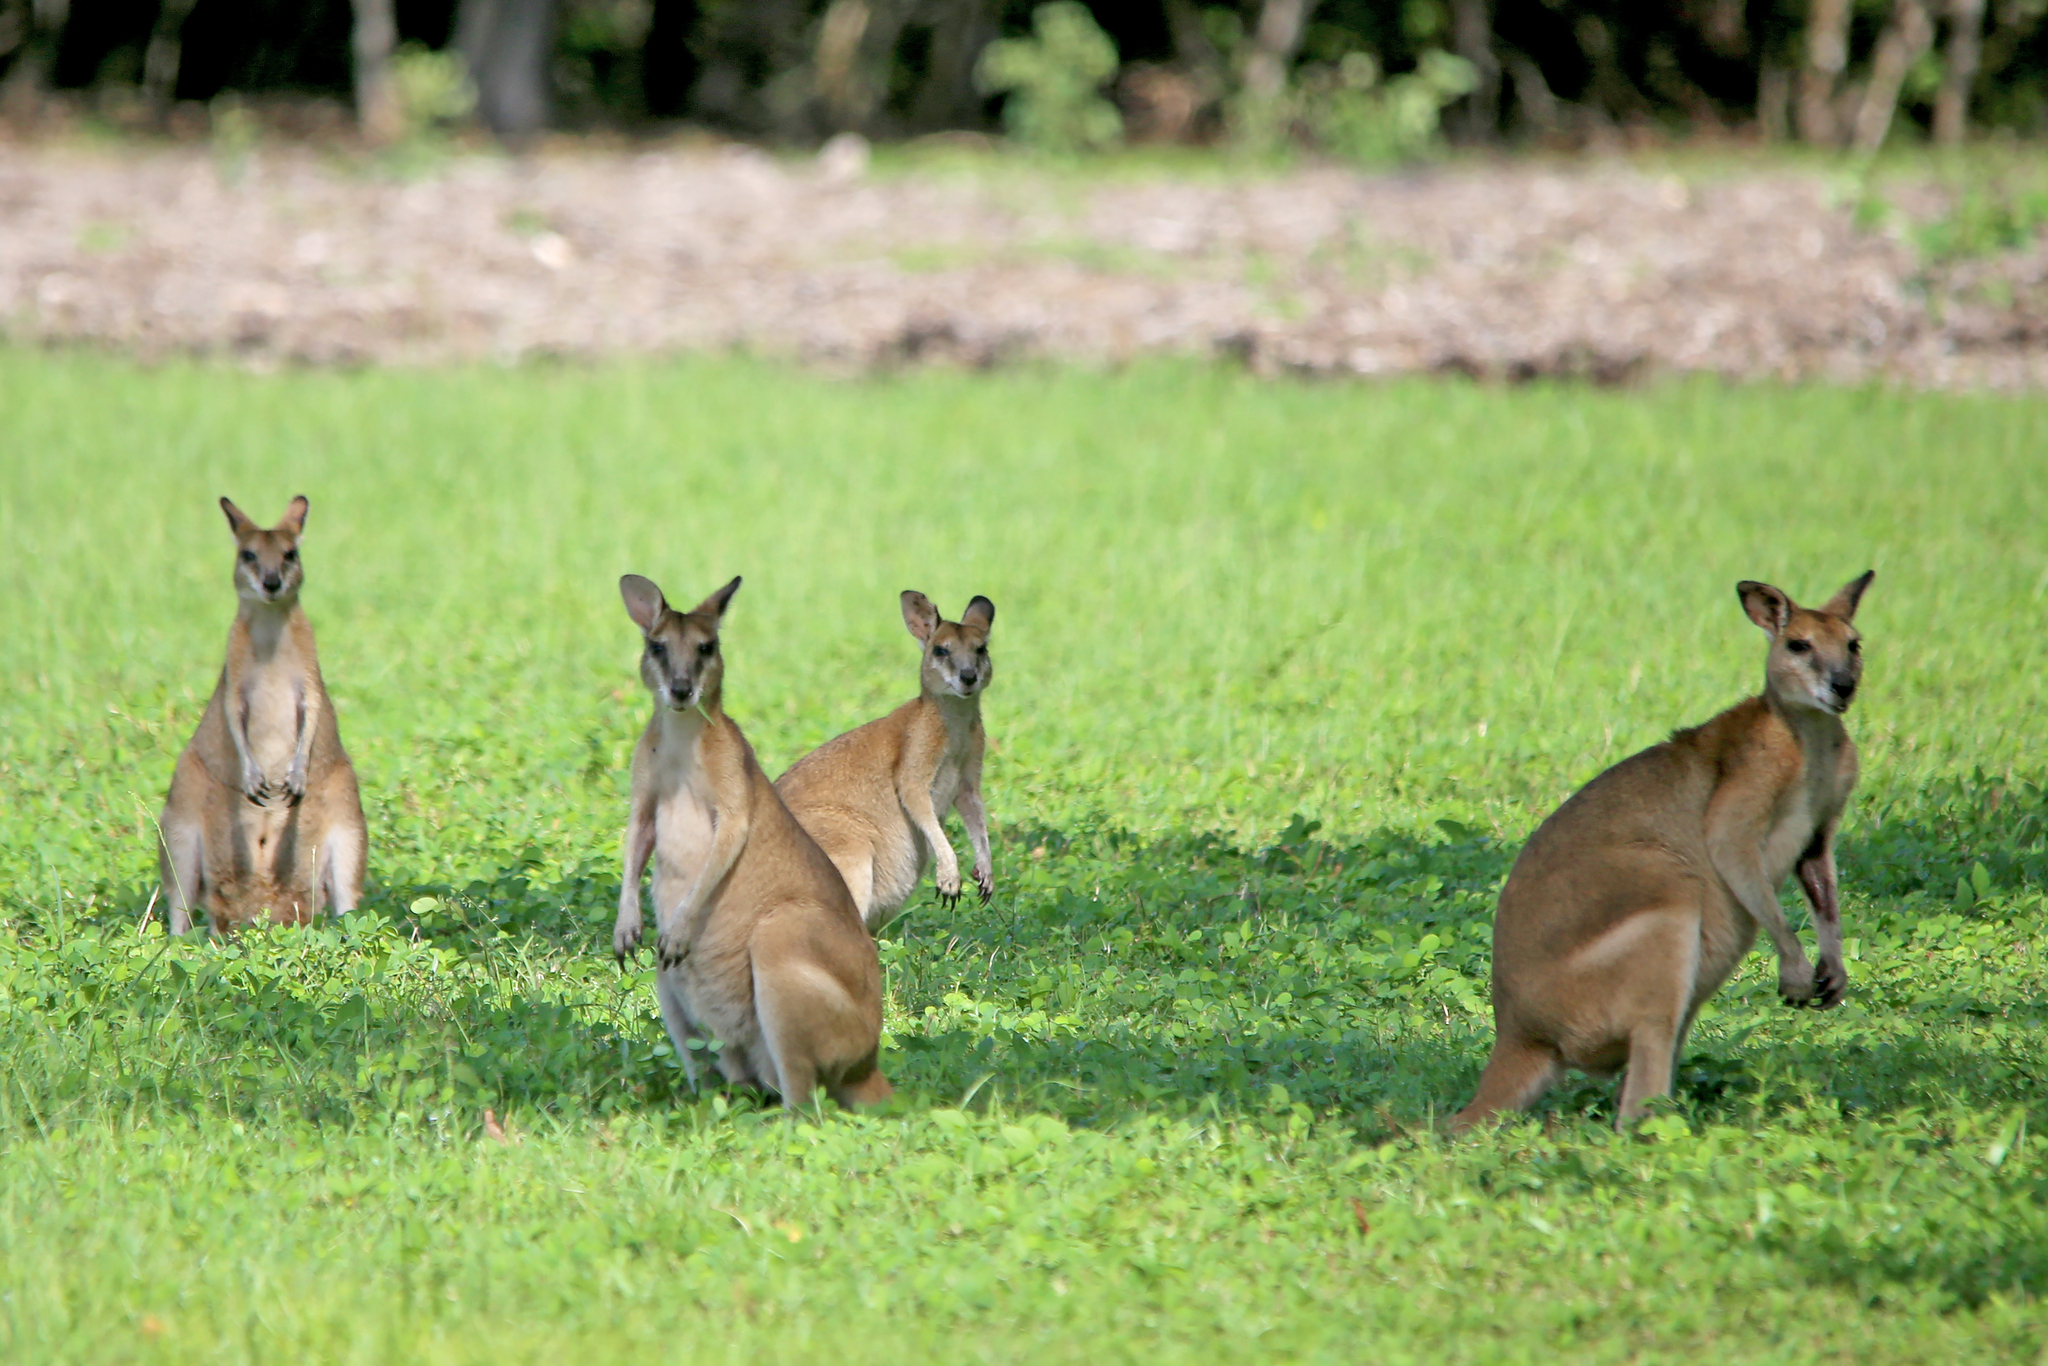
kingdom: Animalia
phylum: Chordata
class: Mammalia
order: Diprotodontia
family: Macropodidae
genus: Macropus
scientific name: Macropus agilis
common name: Agile wallaby
